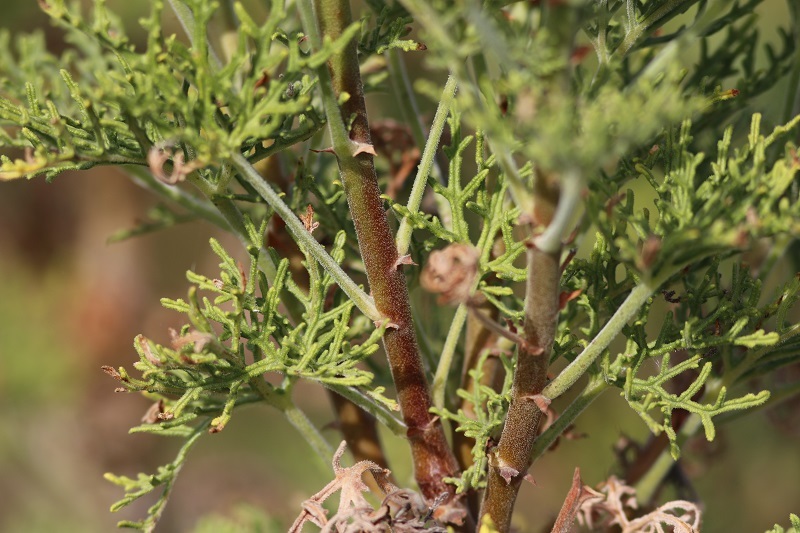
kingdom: Plantae
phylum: Tracheophyta
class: Magnoliopsida
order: Geraniales
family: Geraniaceae
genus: Pelargonium
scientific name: Pelargonium radens
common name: Rasp-leaf pelargonium
